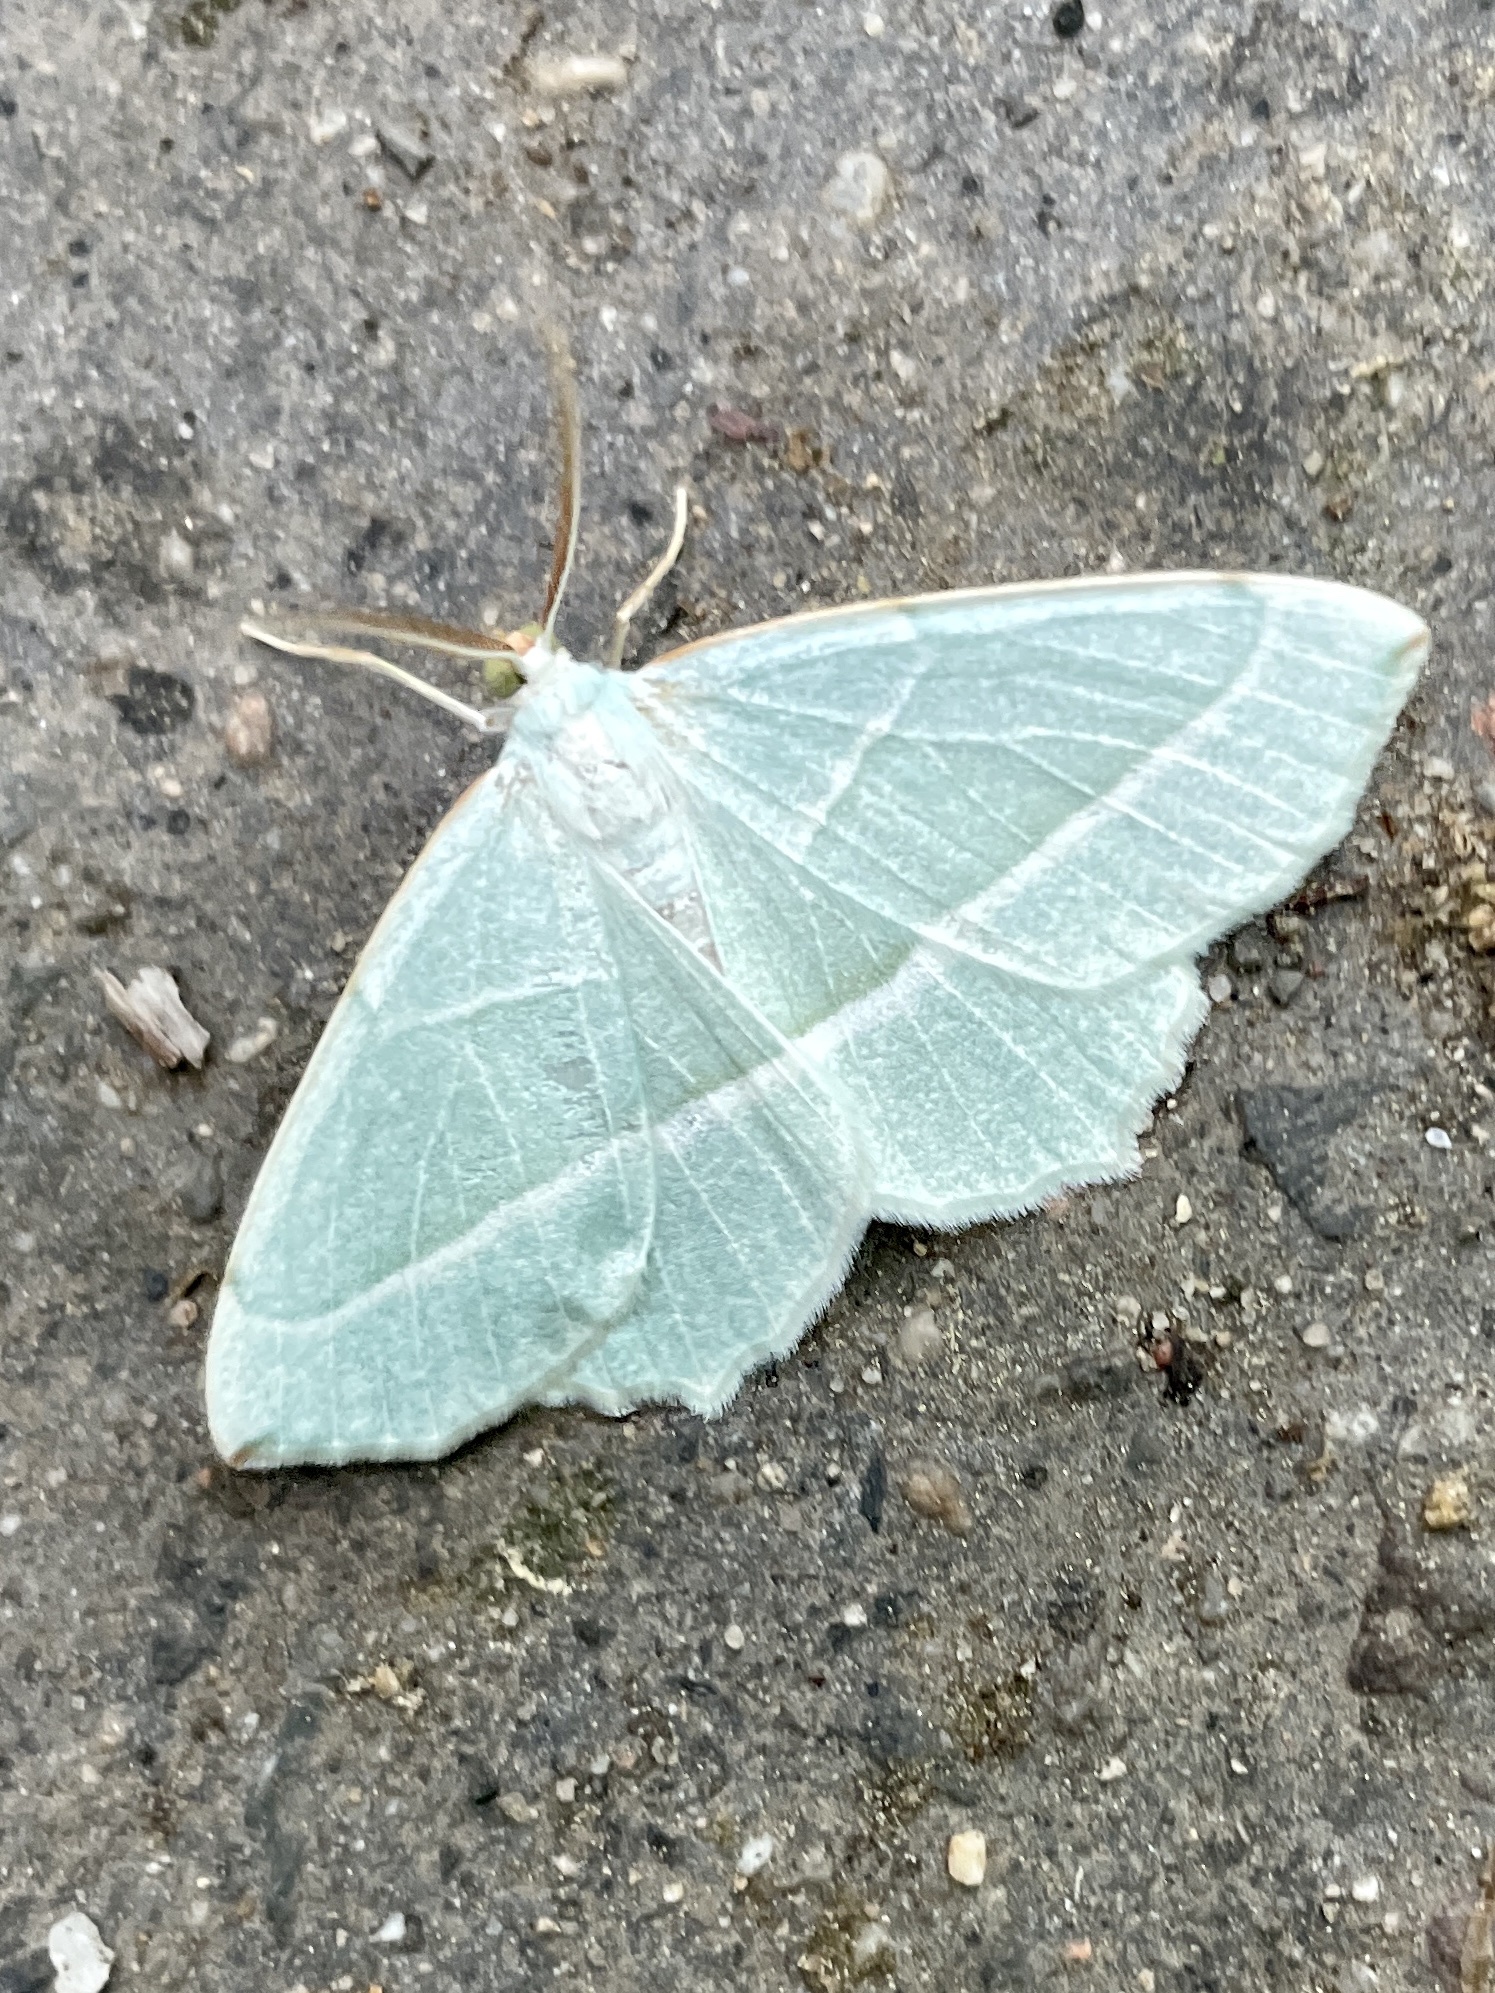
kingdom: Animalia
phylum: Arthropoda
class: Insecta
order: Lepidoptera
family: Geometridae
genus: Campaea
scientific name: Campaea margaritaria
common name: Light emerald
